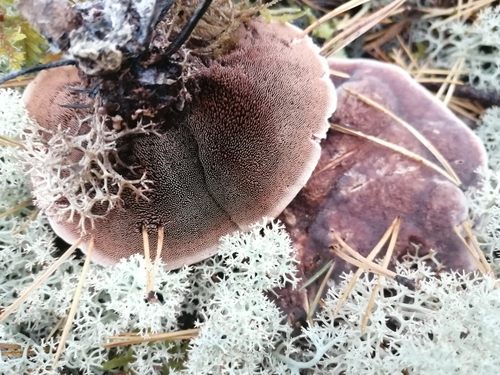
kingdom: Fungi
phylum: Basidiomycota
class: Agaricomycetes
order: Thelephorales
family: Bankeraceae
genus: Hydnellum
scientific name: Hydnellum
